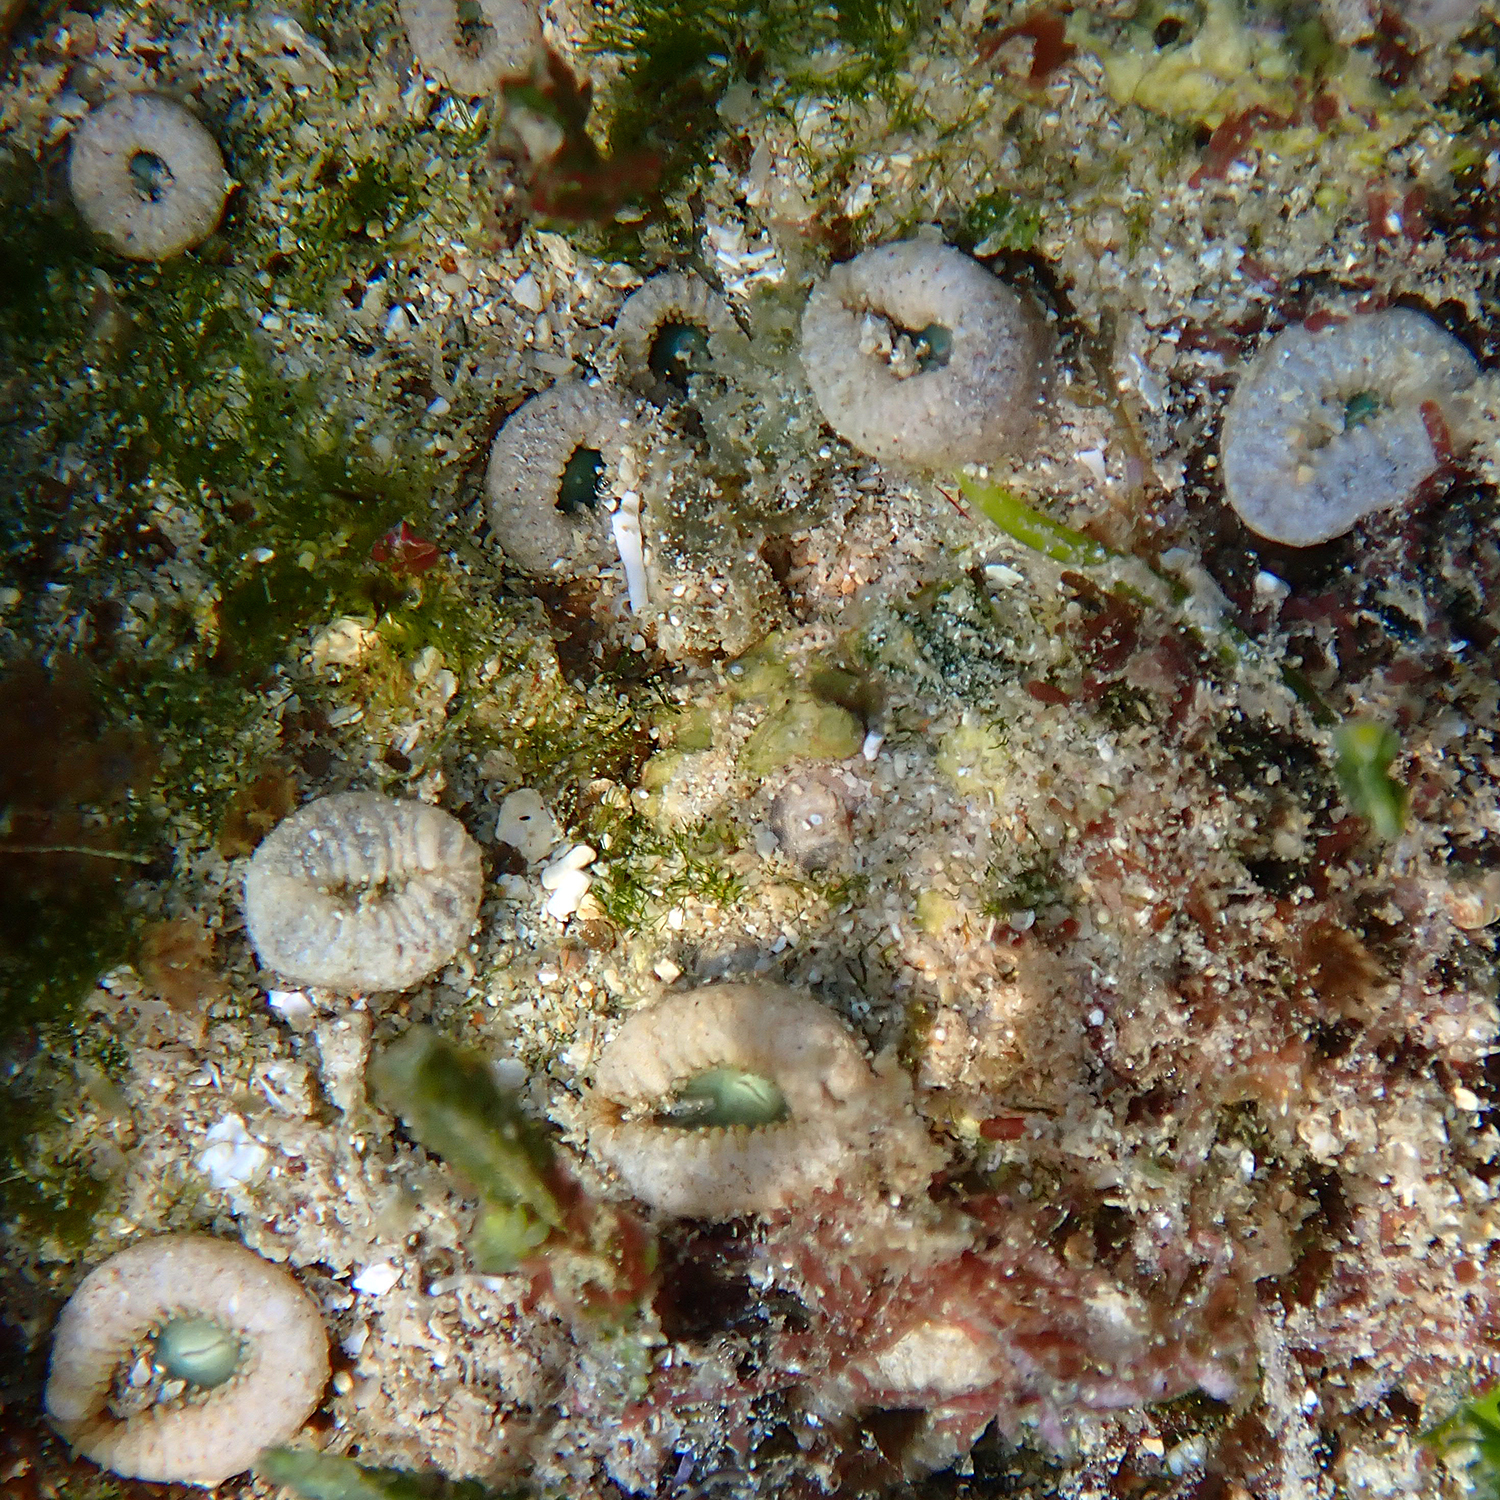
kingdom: Animalia
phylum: Cnidaria
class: Anthozoa
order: Zoantharia
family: Sphenopidae
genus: Palythoa
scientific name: Palythoa mutuki
